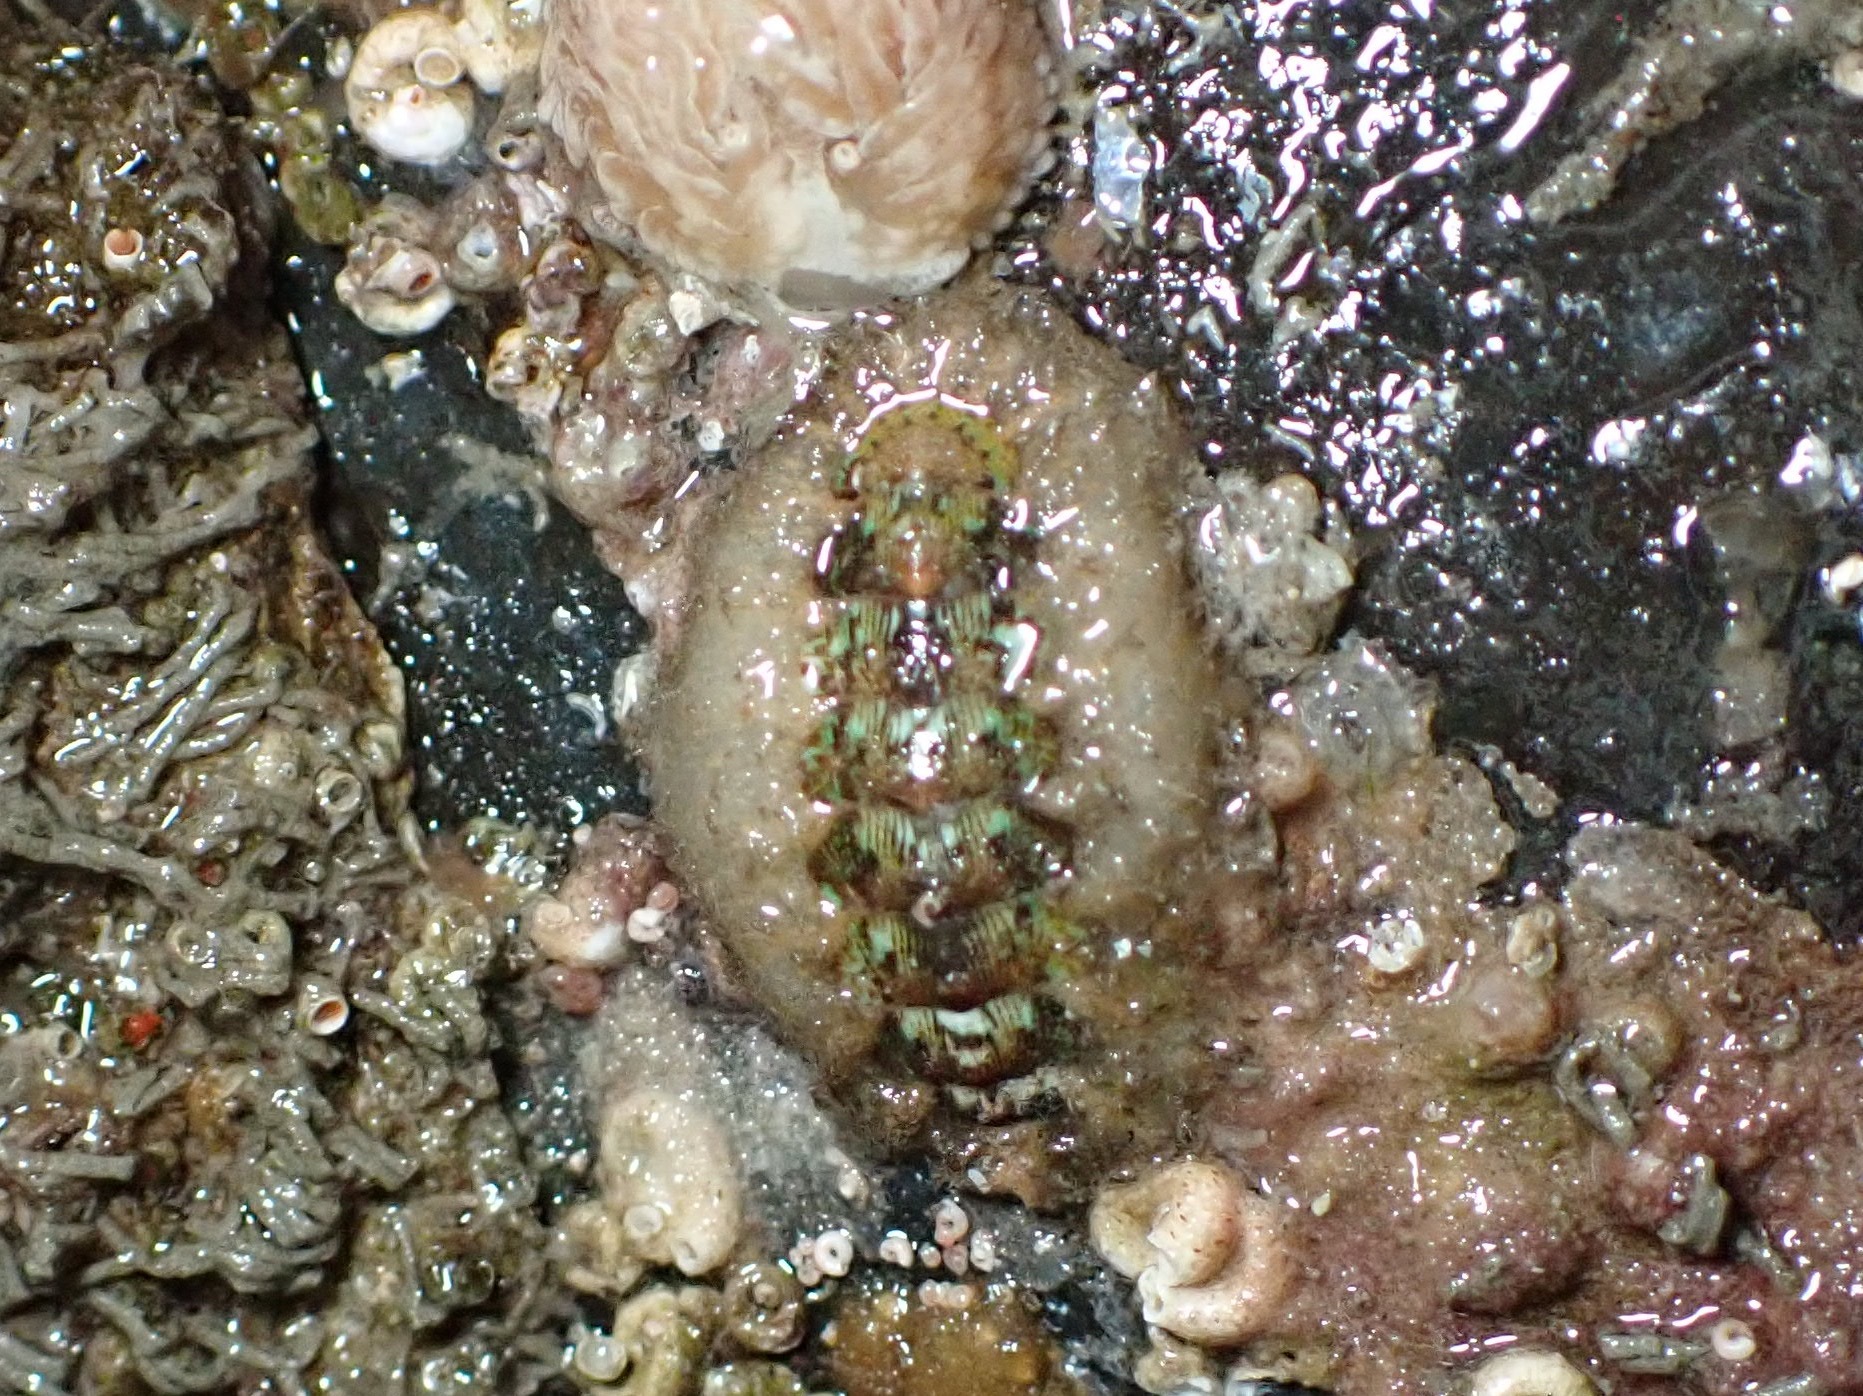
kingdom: Animalia
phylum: Mollusca
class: Polyplacophora
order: Chitonida
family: Mopaliidae
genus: Mopalia
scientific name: Mopalia ciliata
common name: Hairy chiton
